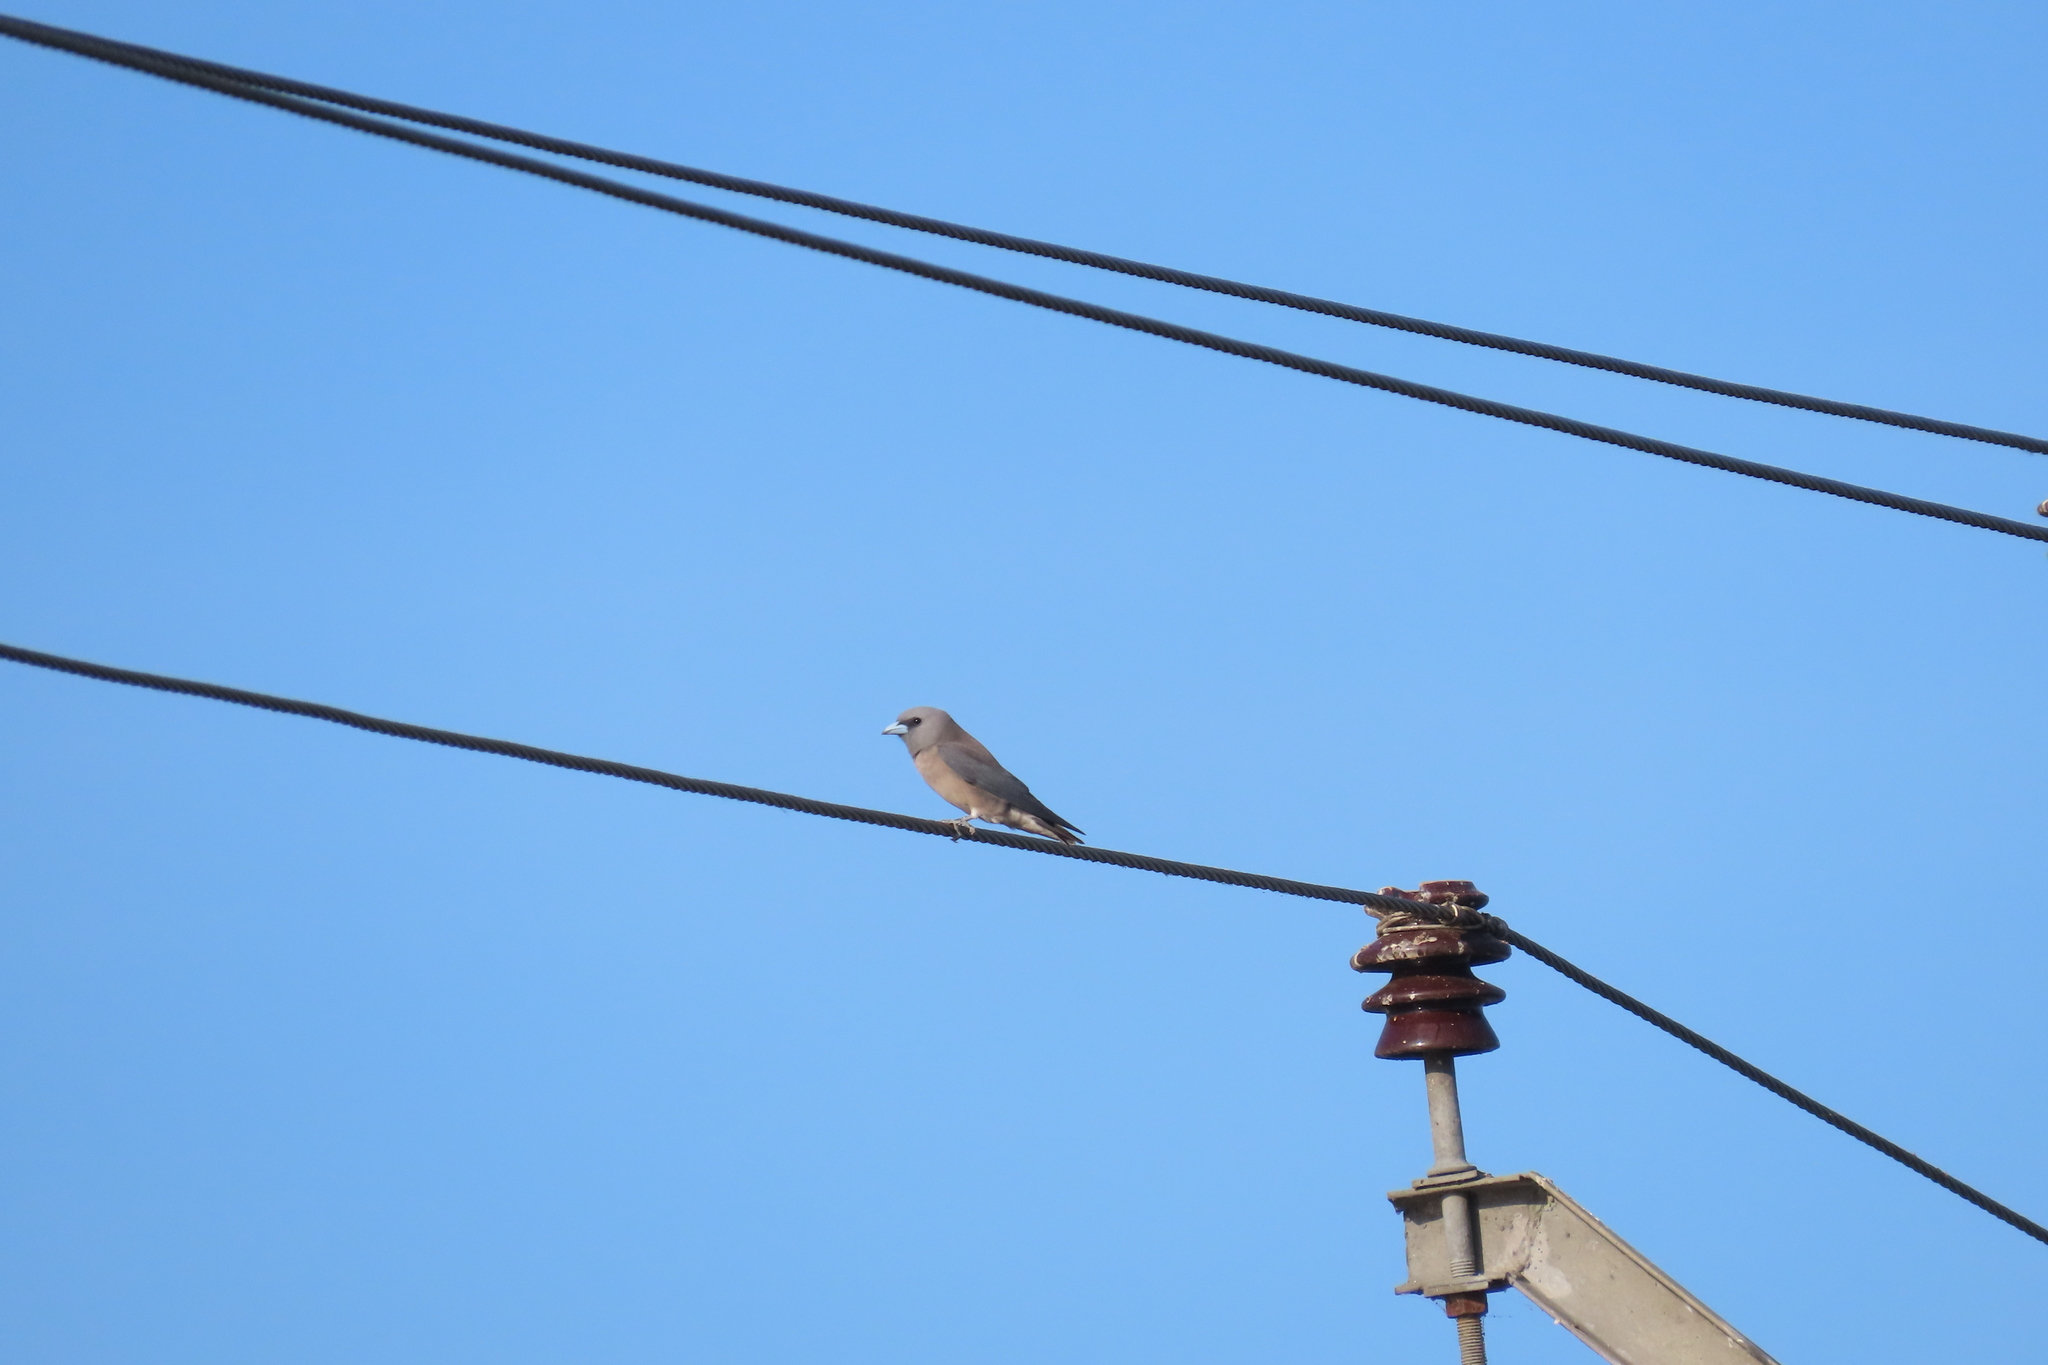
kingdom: Animalia
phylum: Chordata
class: Aves
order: Passeriformes
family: Artamidae
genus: Artamus
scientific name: Artamus fuscus
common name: Ashy woodswallow
